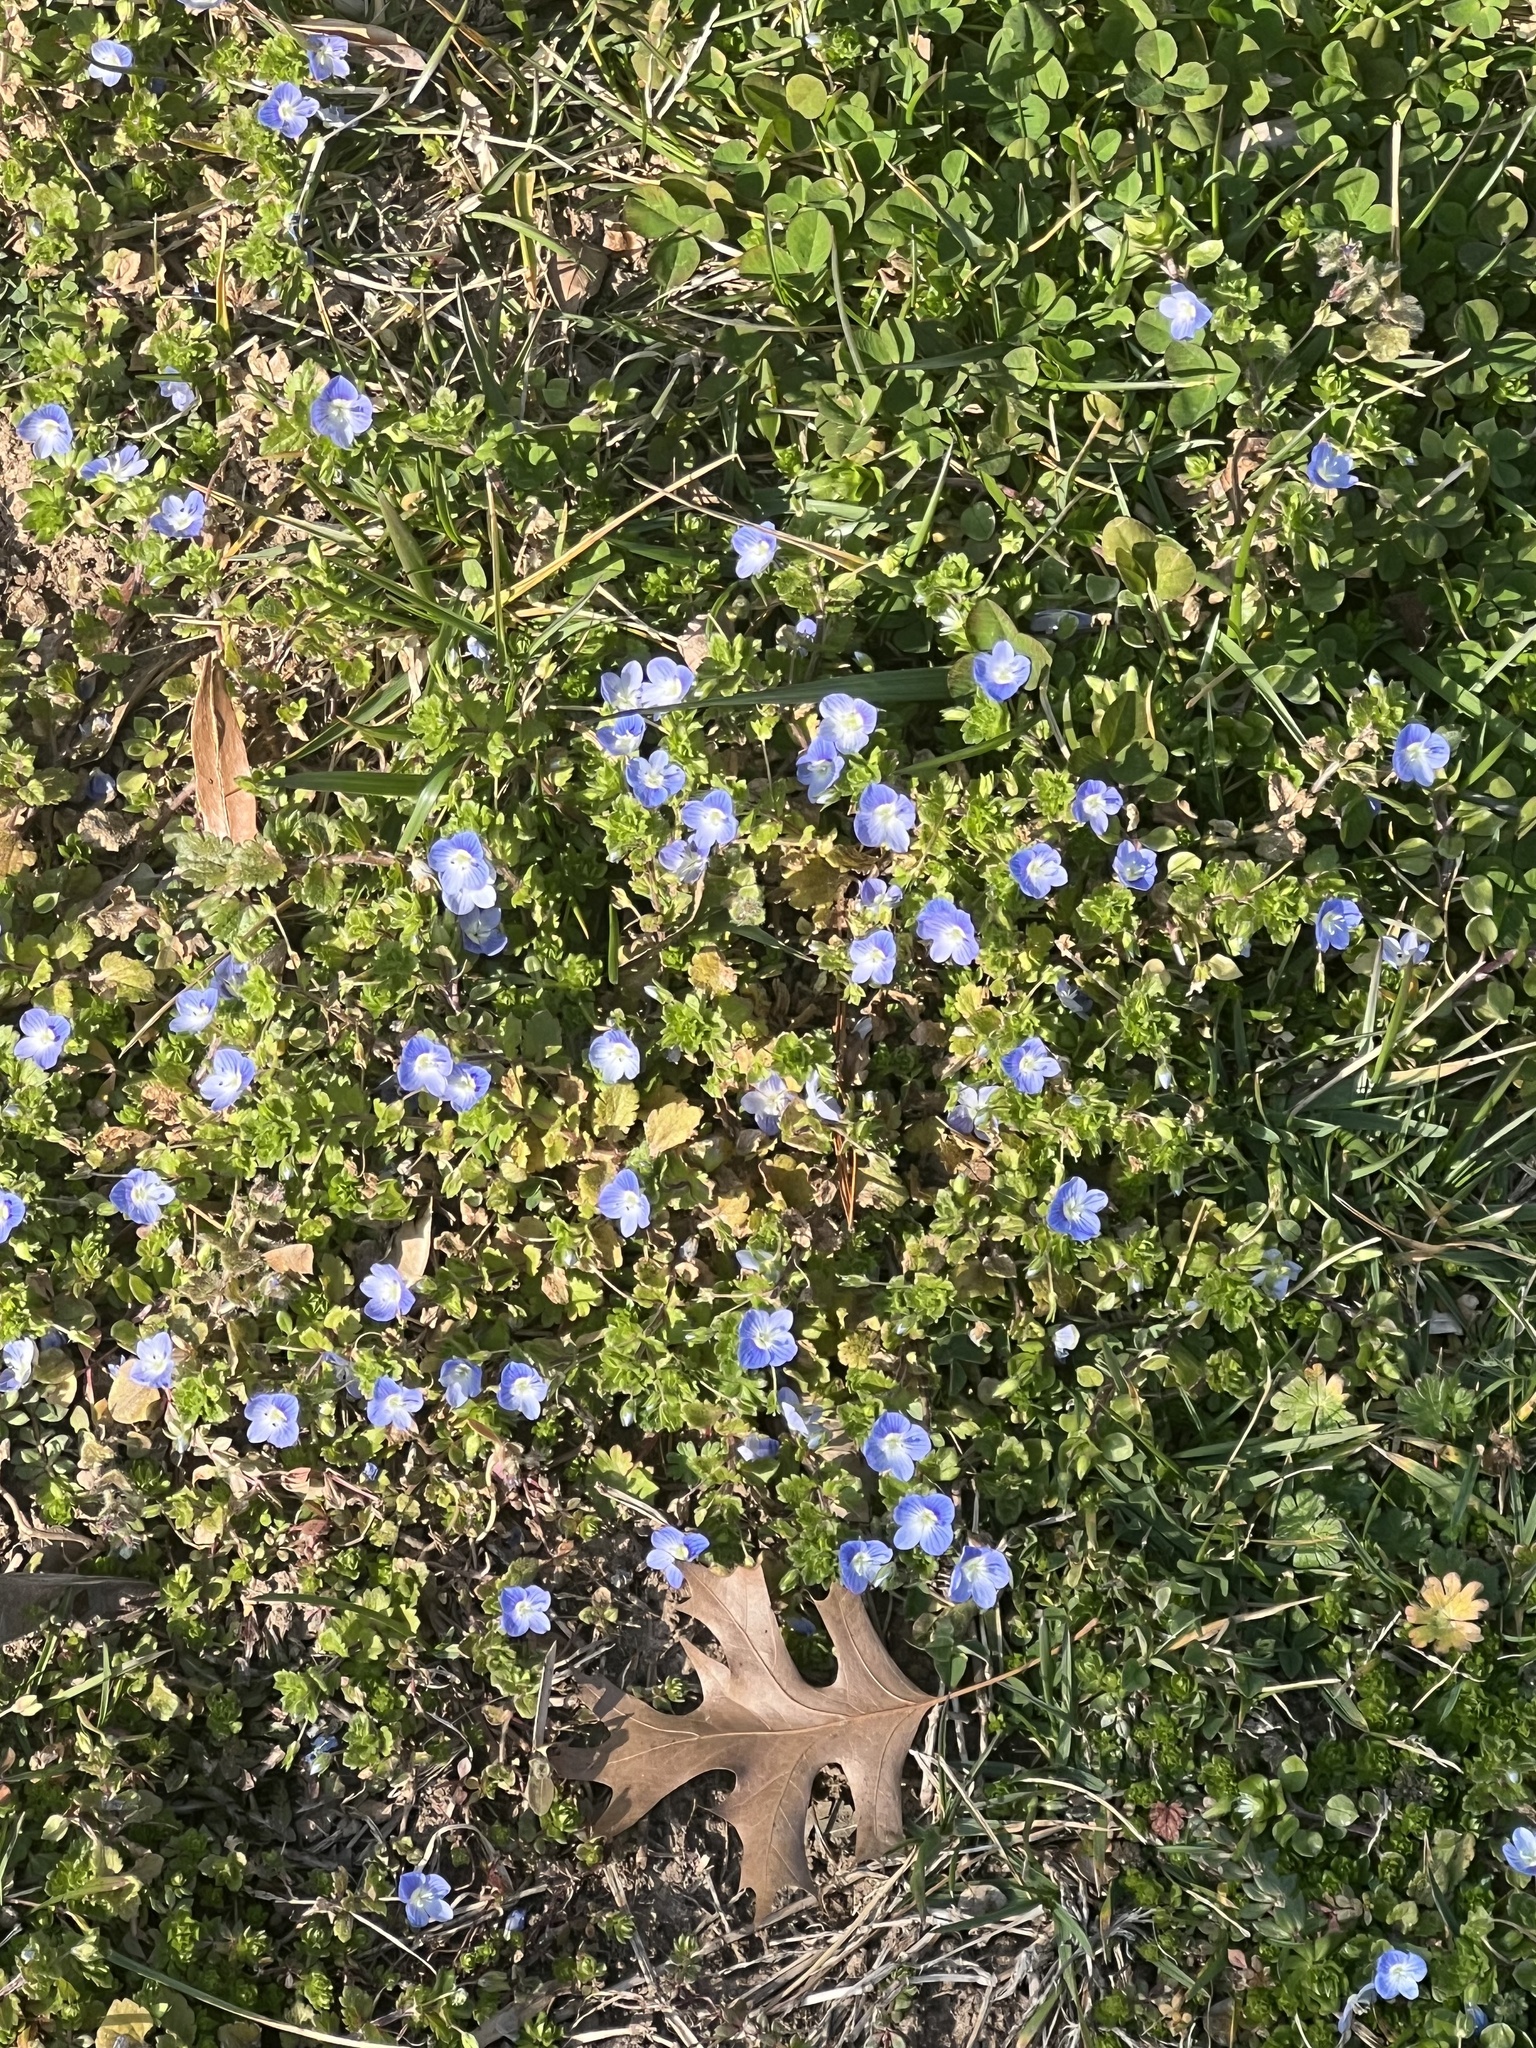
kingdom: Plantae
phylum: Tracheophyta
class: Magnoliopsida
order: Lamiales
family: Plantaginaceae
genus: Veronica
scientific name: Veronica persica
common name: Common field-speedwell
